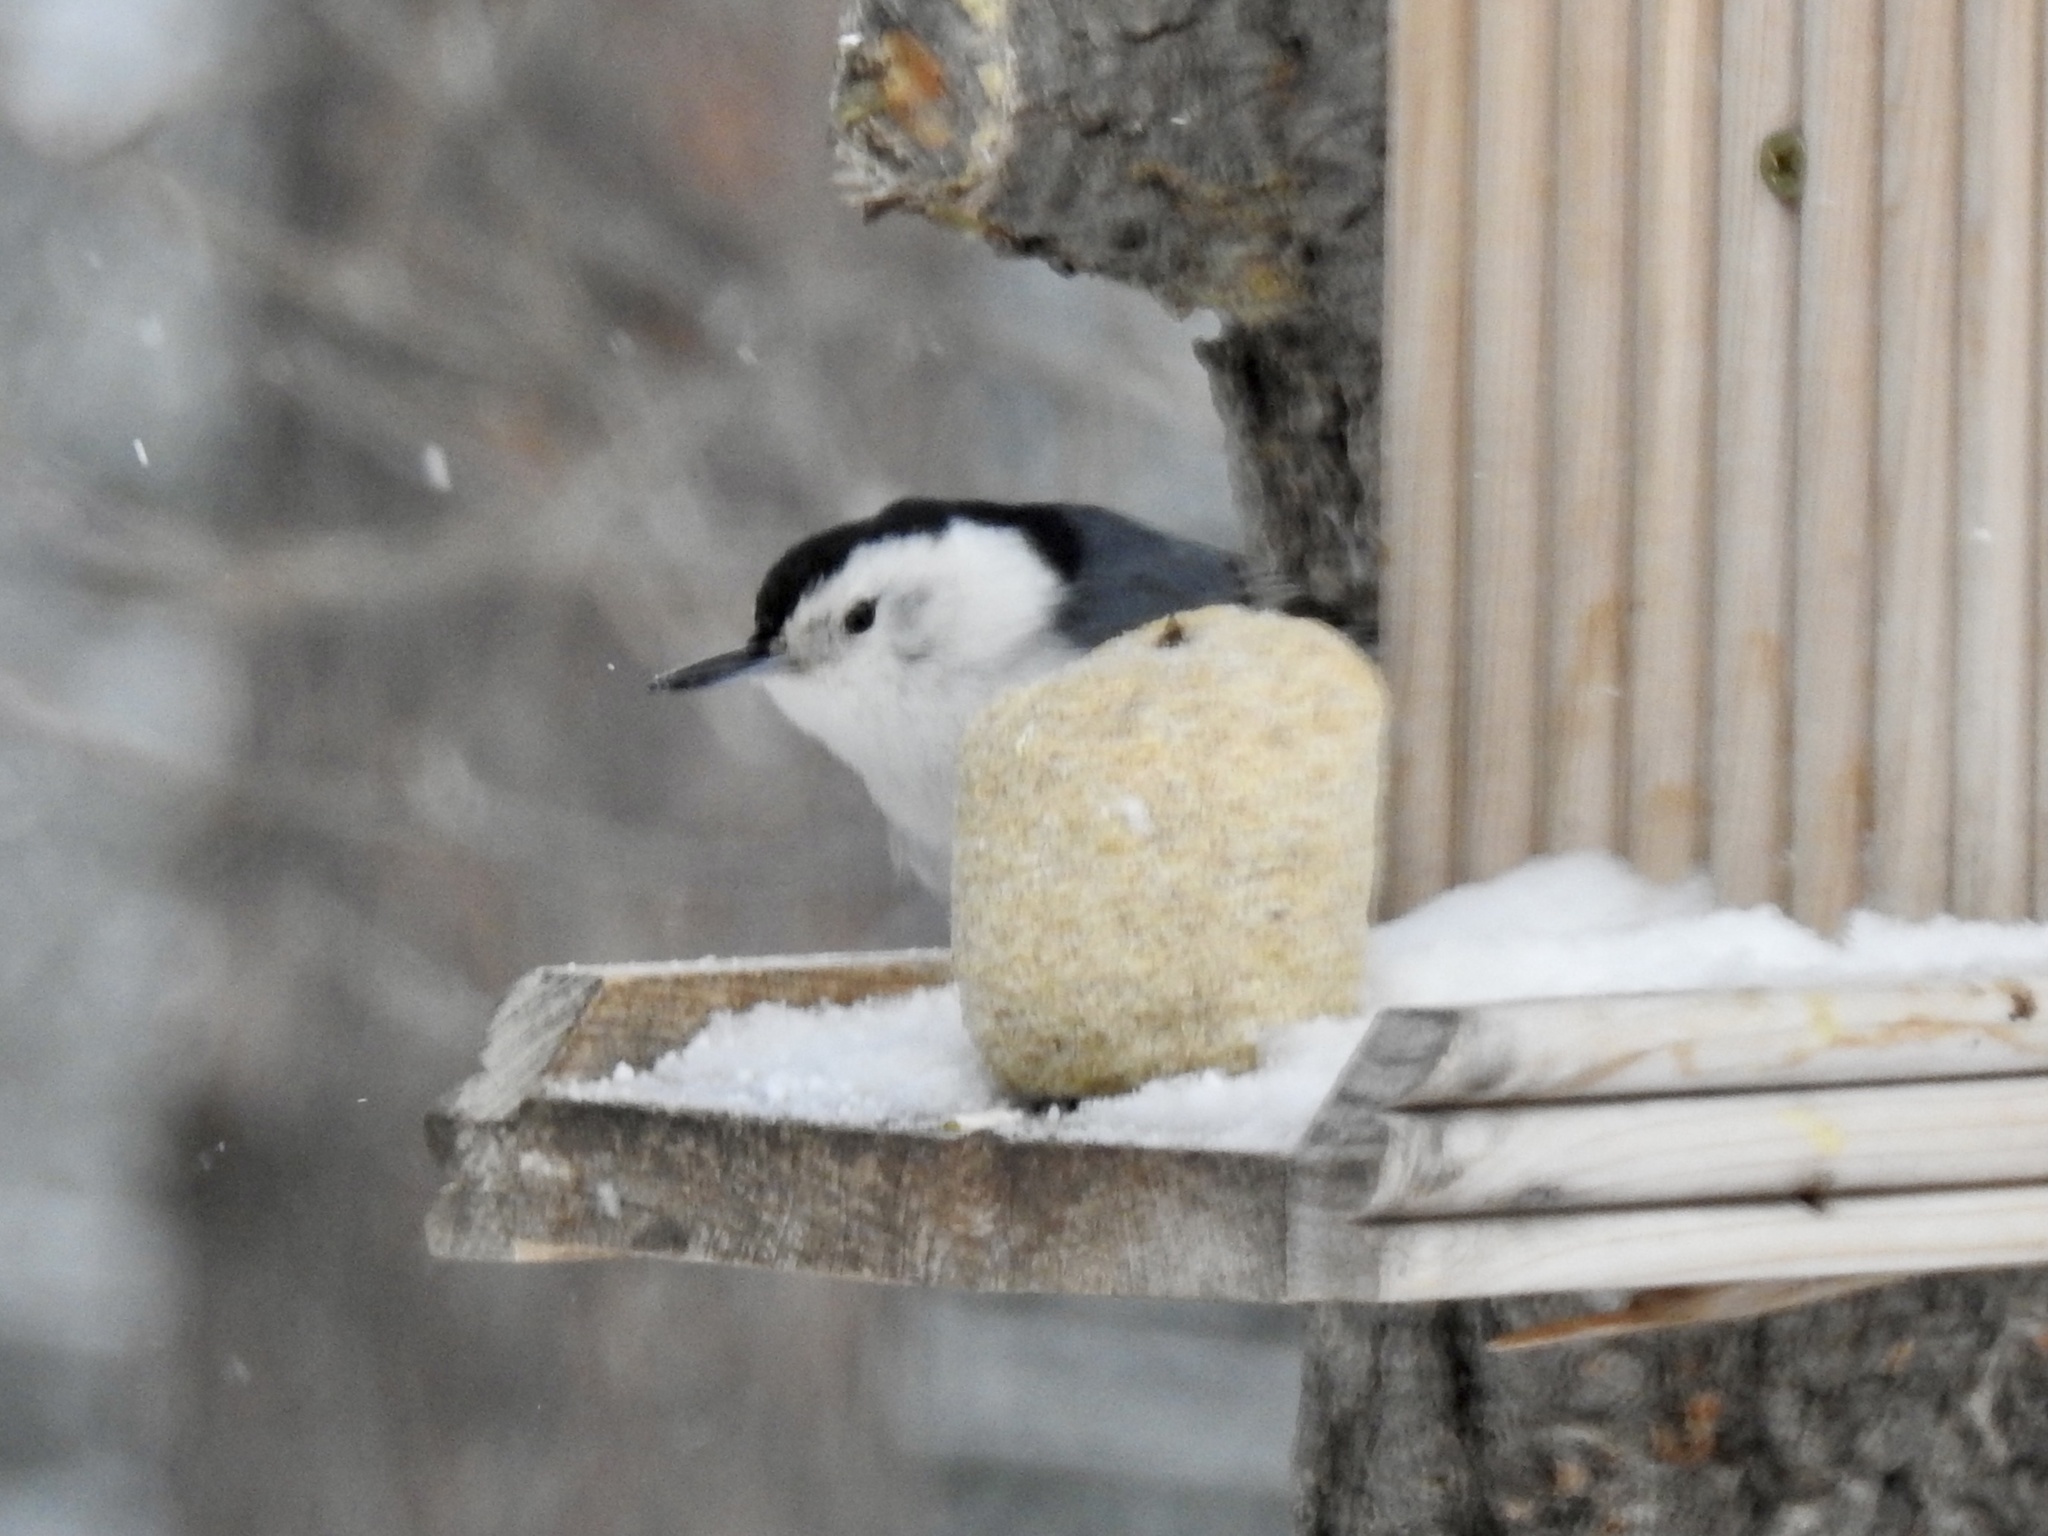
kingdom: Animalia
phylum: Chordata
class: Aves
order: Passeriformes
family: Sittidae
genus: Sitta
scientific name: Sitta carolinensis
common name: White-breasted nuthatch
